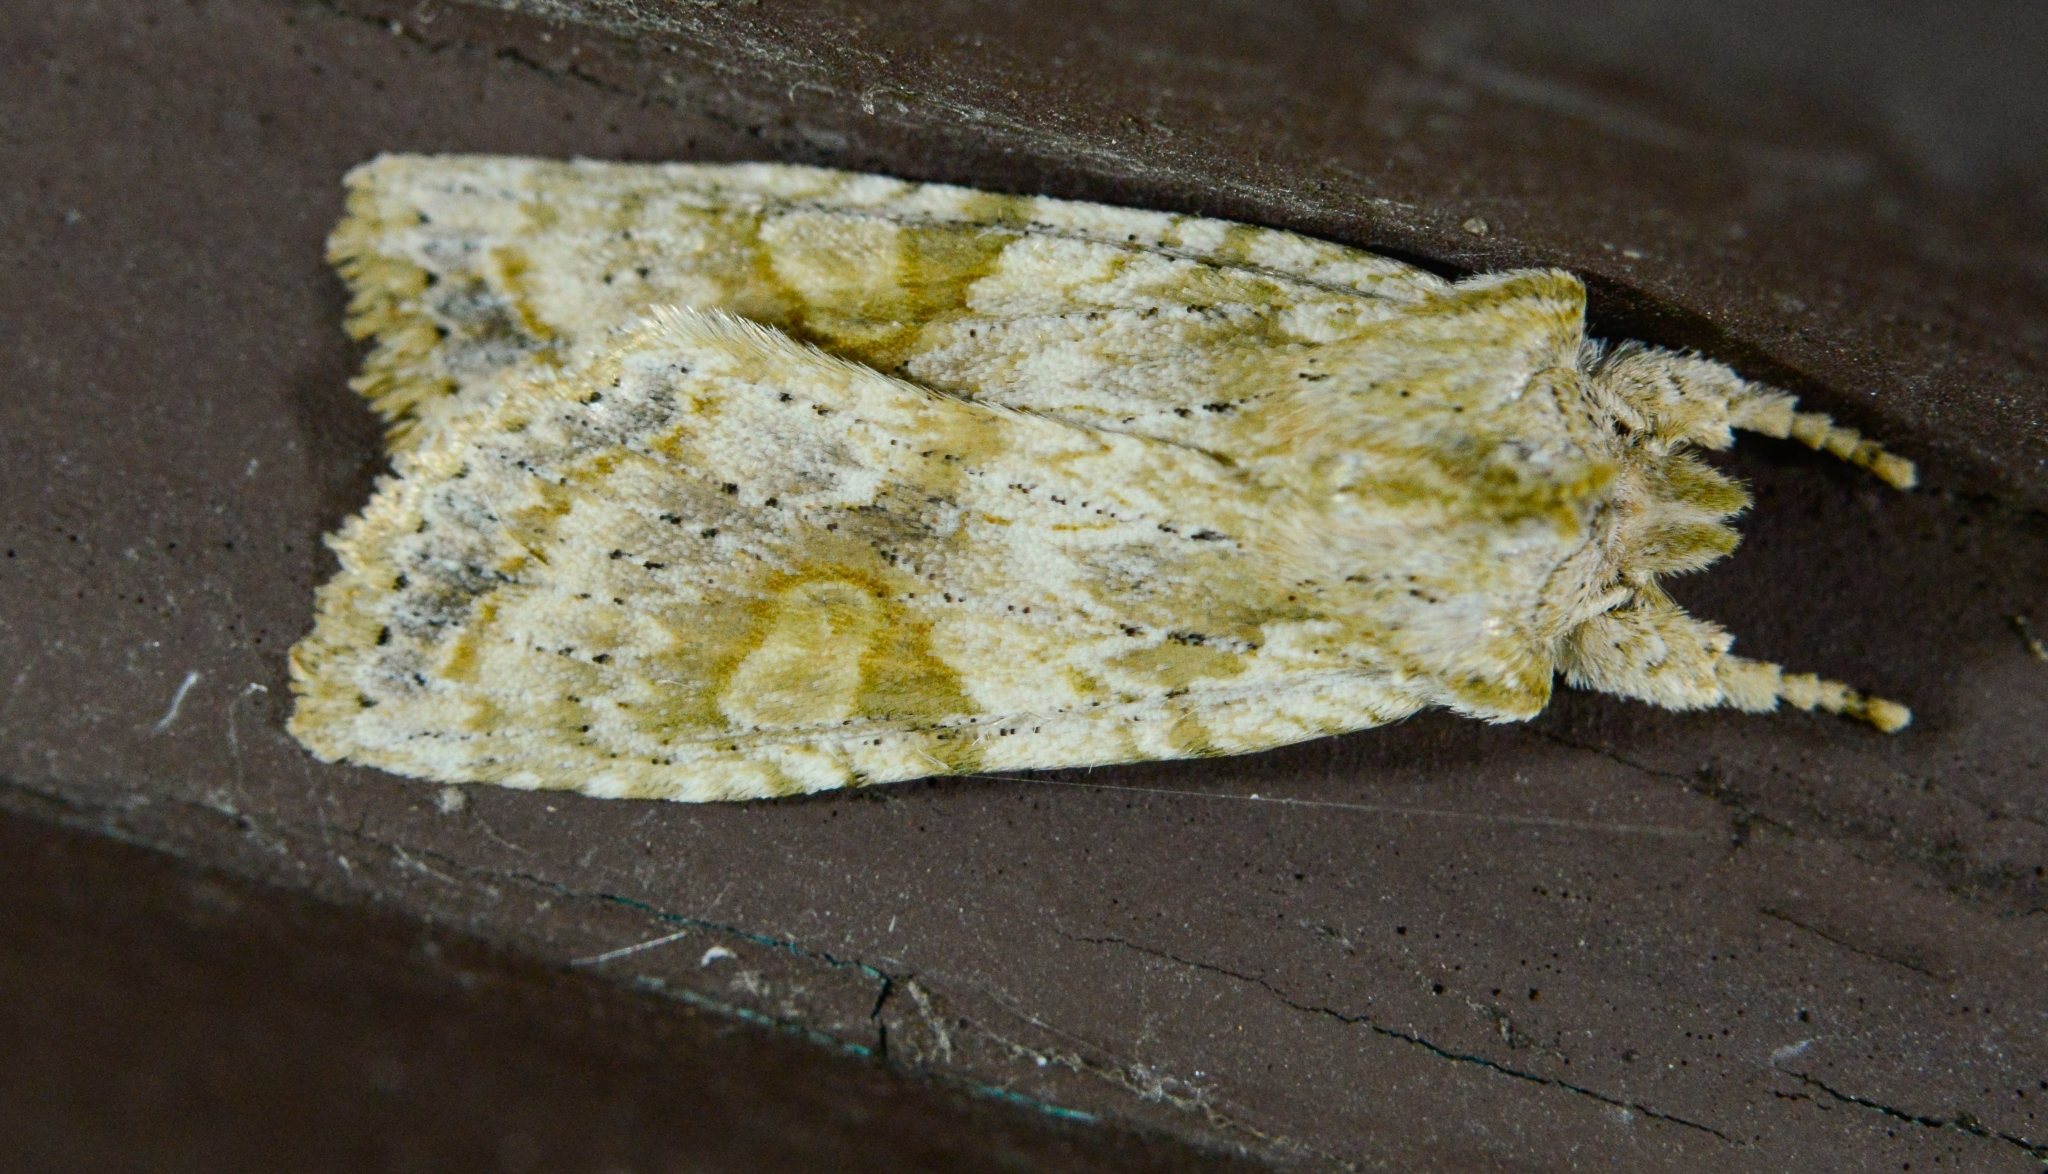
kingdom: Animalia
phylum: Arthropoda
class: Insecta
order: Lepidoptera
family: Noctuidae
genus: Lithophane
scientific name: Lithophane bethunei
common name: Bethune's pinion moth
